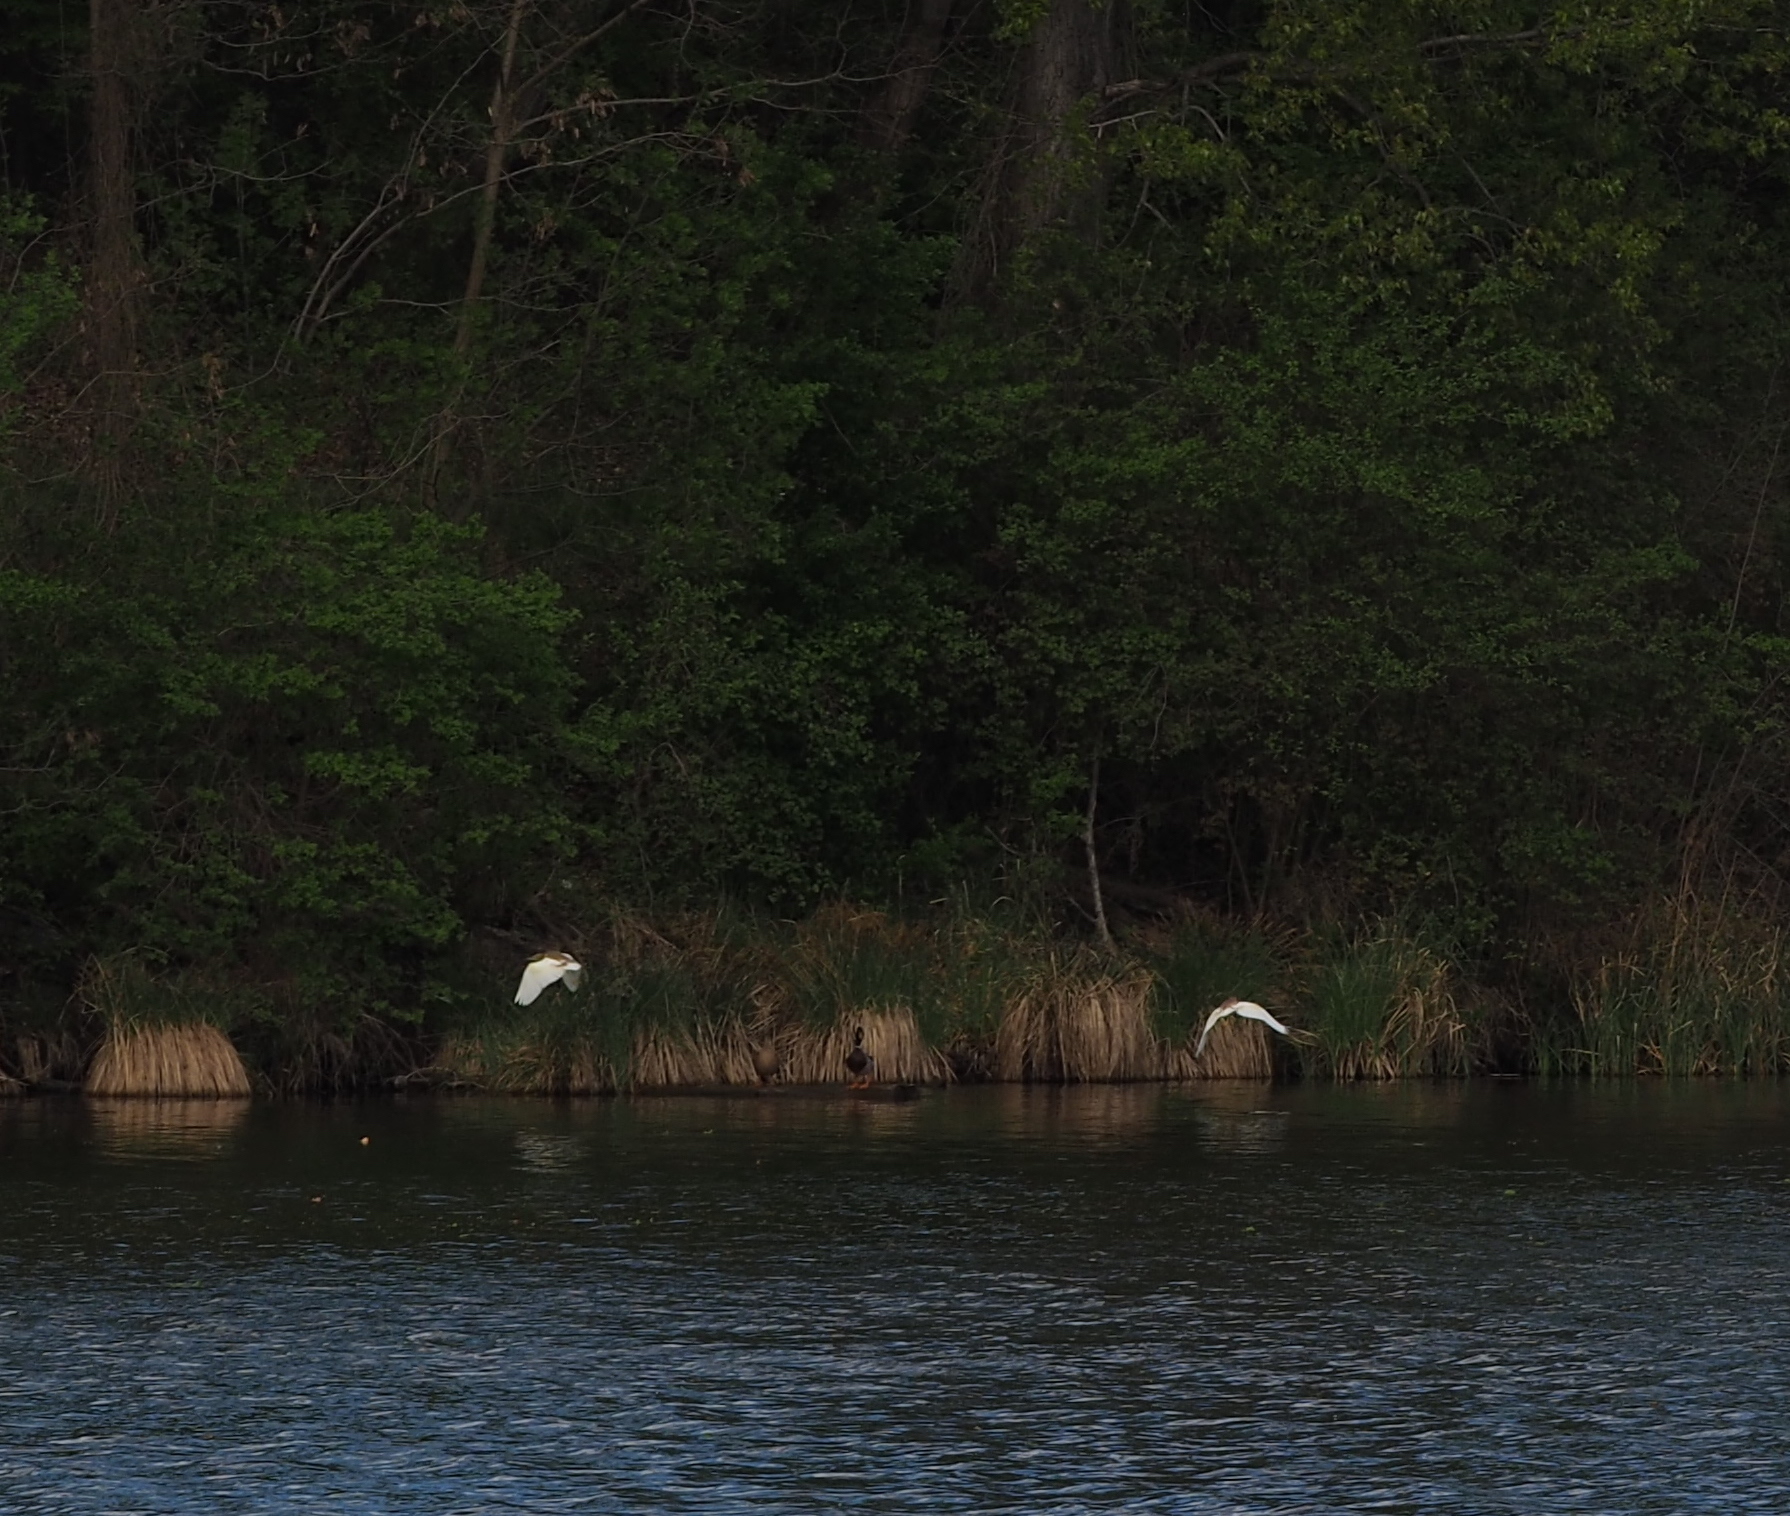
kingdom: Animalia
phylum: Chordata
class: Aves
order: Pelecaniformes
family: Ardeidae
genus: Ardeola
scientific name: Ardeola ralloides
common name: Squacco heron
